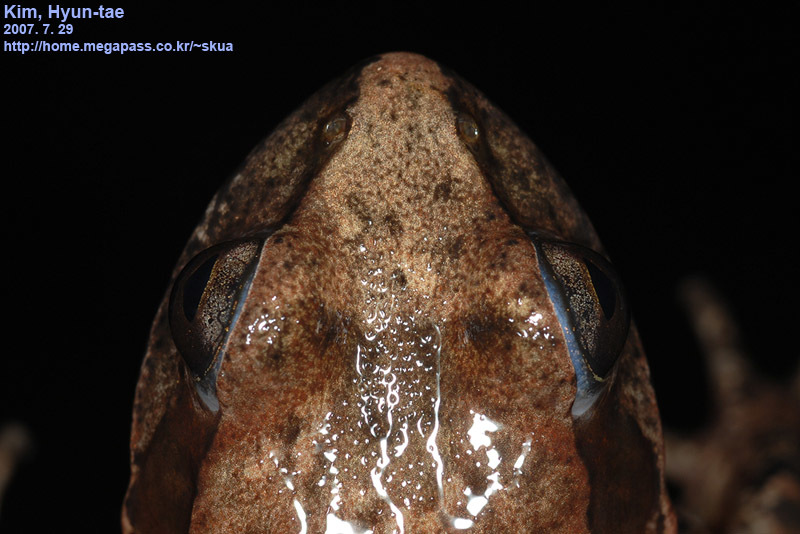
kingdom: Animalia
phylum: Chordata
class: Amphibia
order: Anura
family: Ranidae
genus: Rana
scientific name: Rana huanrenensis
